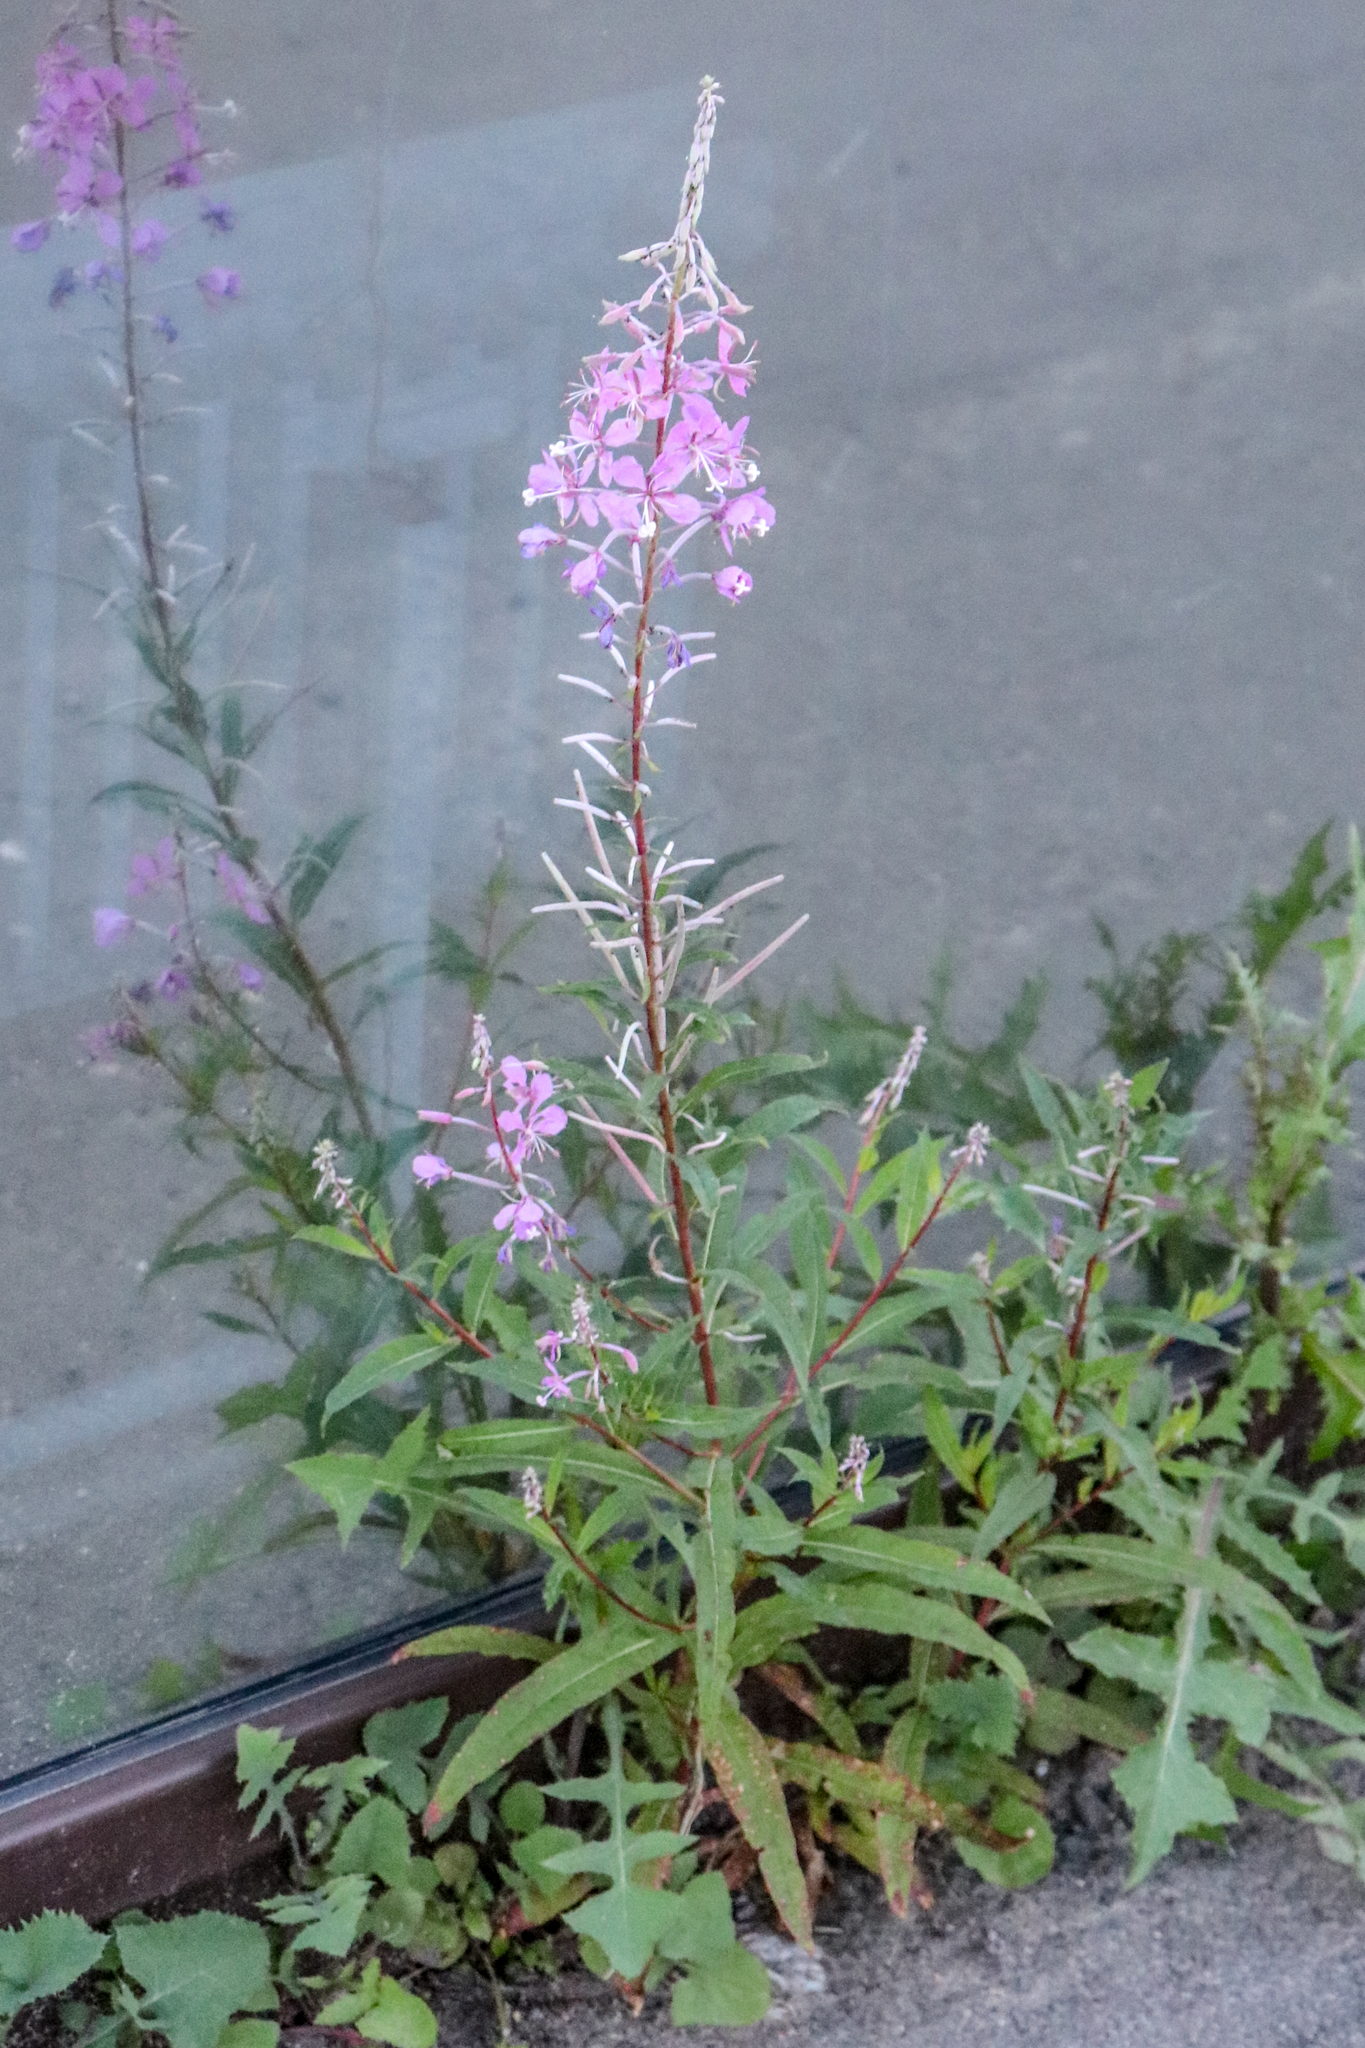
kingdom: Plantae
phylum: Tracheophyta
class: Magnoliopsida
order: Myrtales
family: Onagraceae
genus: Chamaenerion
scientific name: Chamaenerion angustifolium
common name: Fireweed
